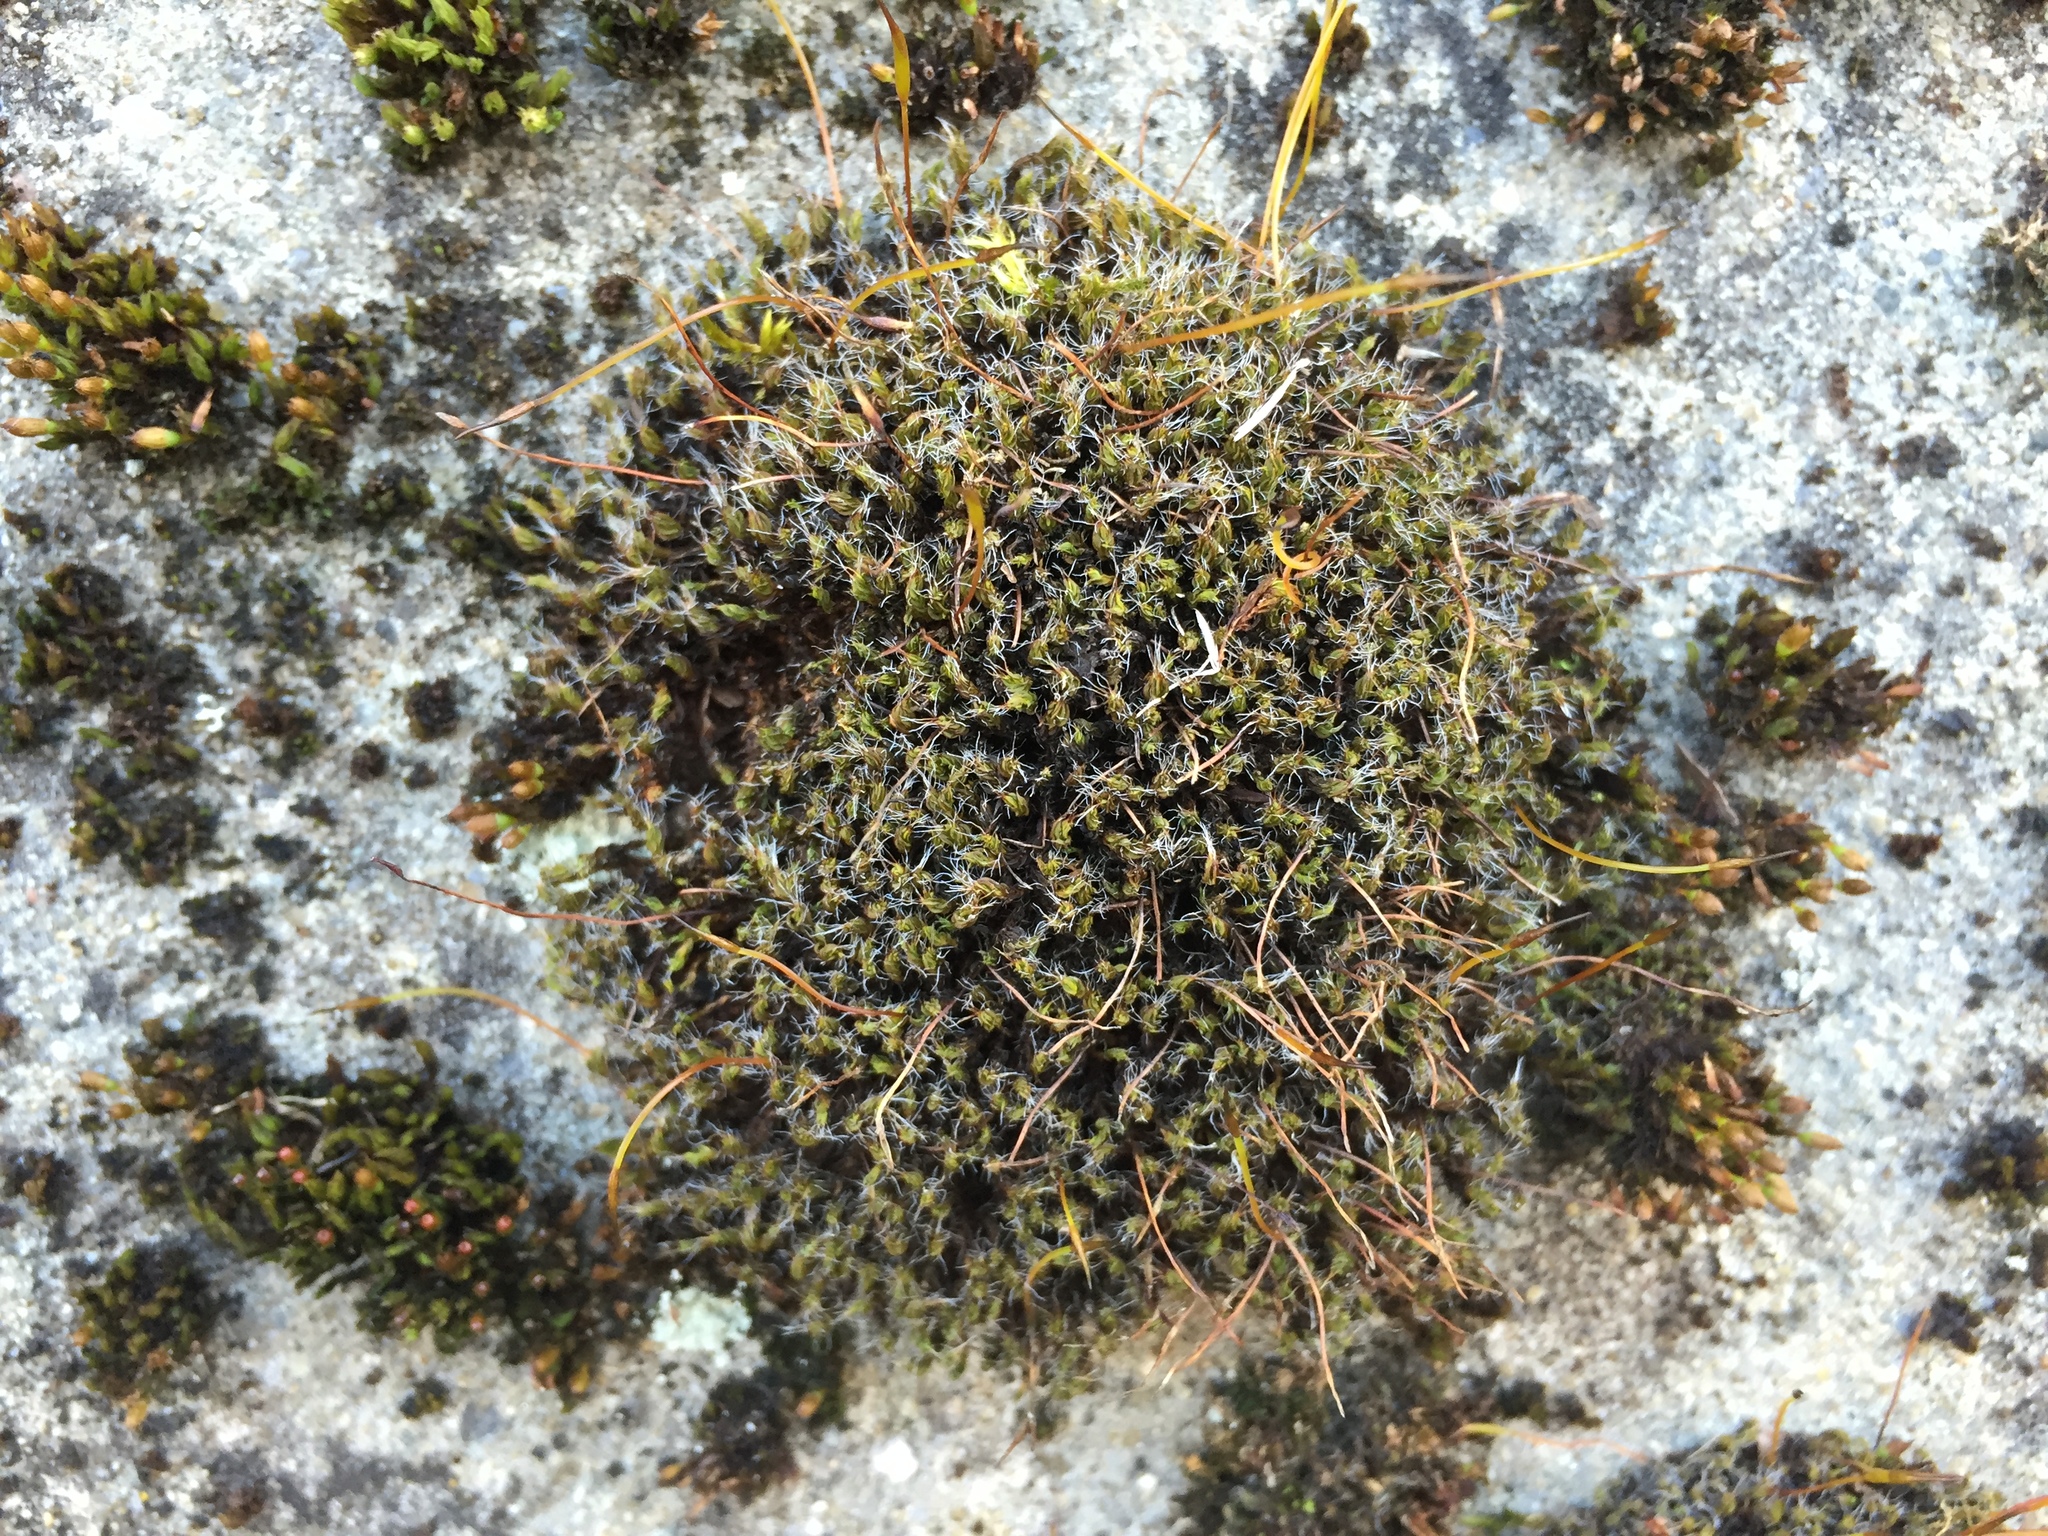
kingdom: Plantae
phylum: Bryophyta
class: Bryopsida
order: Pottiales
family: Pottiaceae
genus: Tortula
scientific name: Tortula muralis
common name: Wall screw-moss
